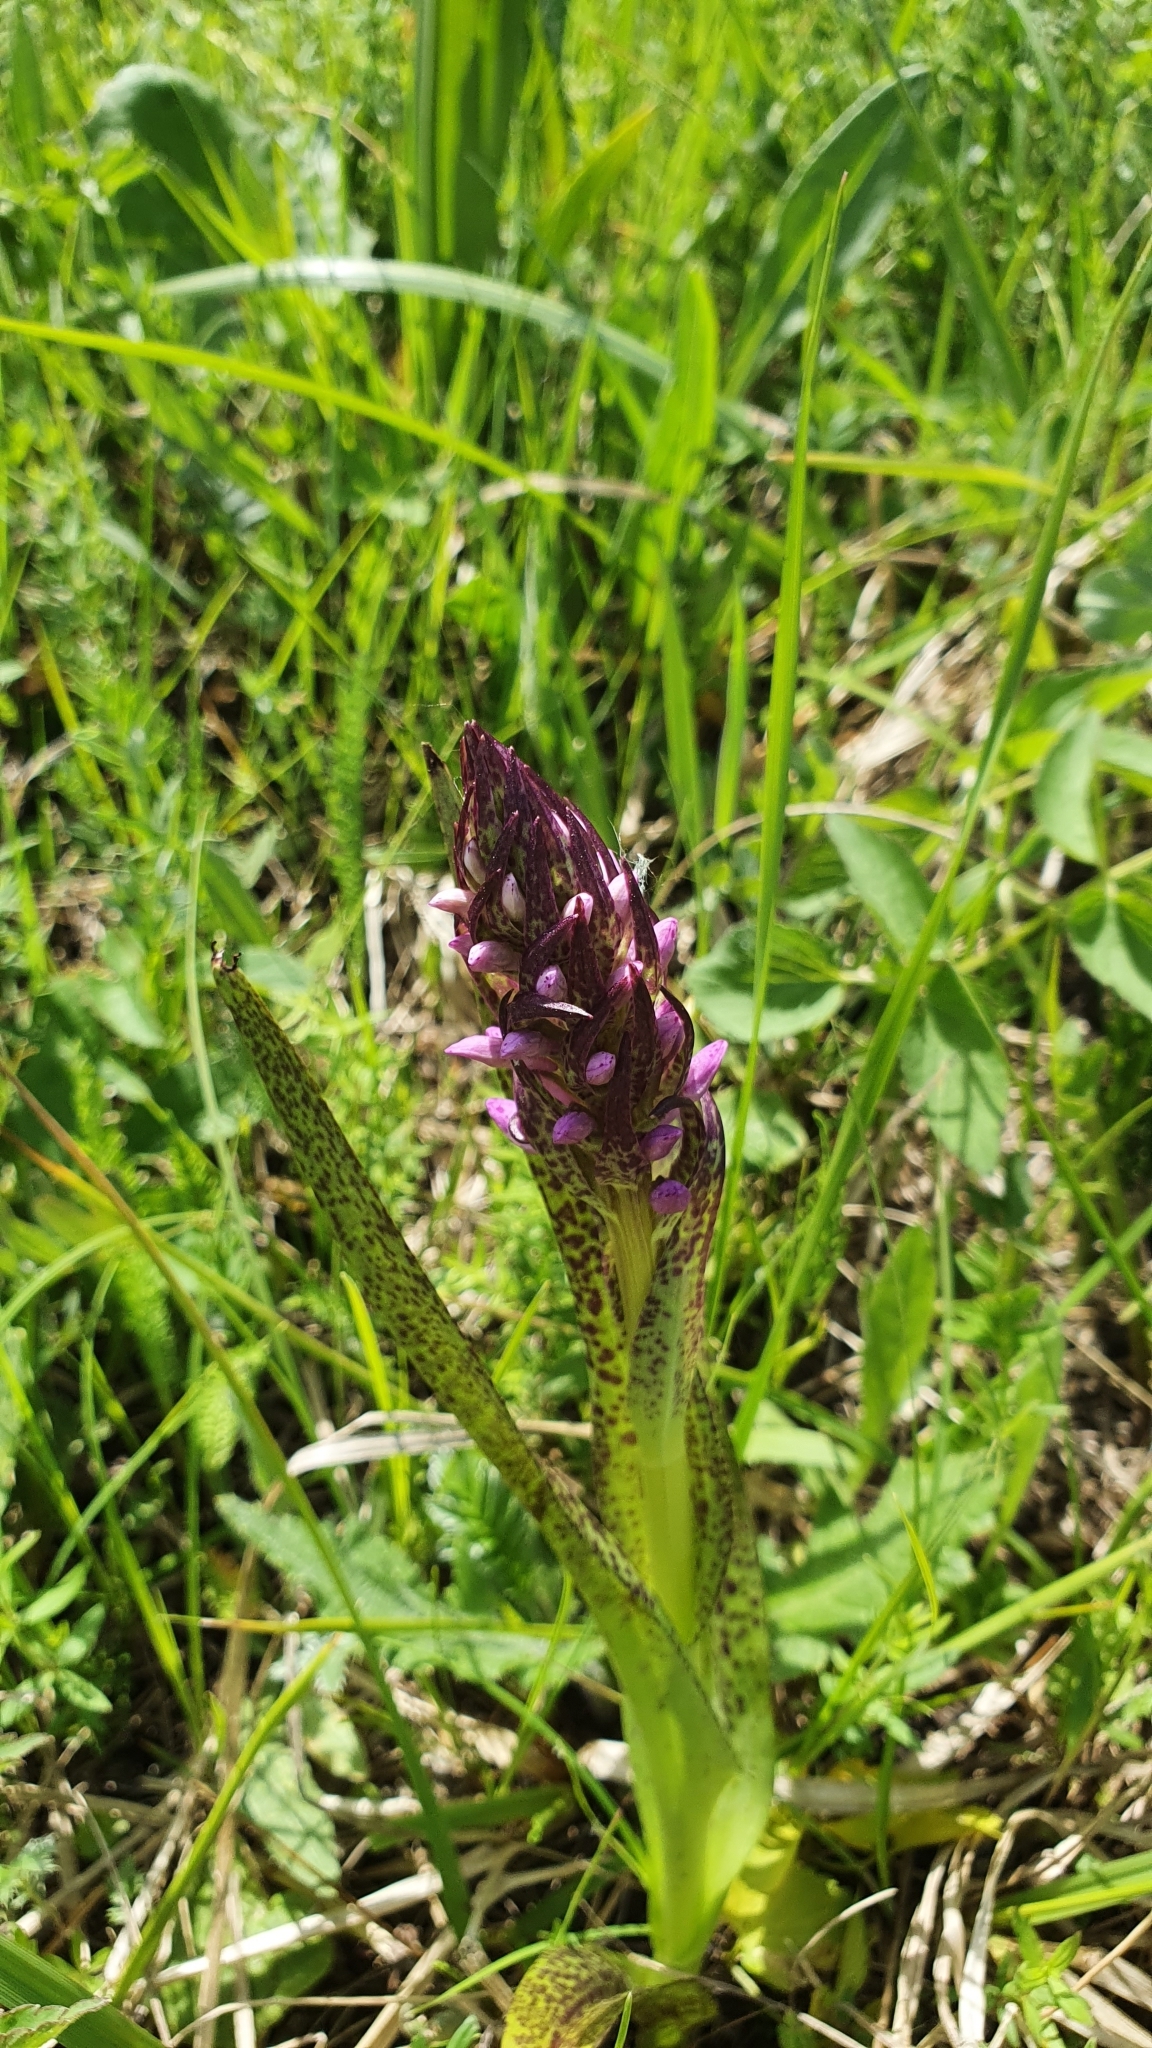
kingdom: Plantae
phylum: Tracheophyta
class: Liliopsida
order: Asparagales
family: Orchidaceae
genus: Dactylorhiza
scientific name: Dactylorhiza incarnata
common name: Early marsh-orchid
